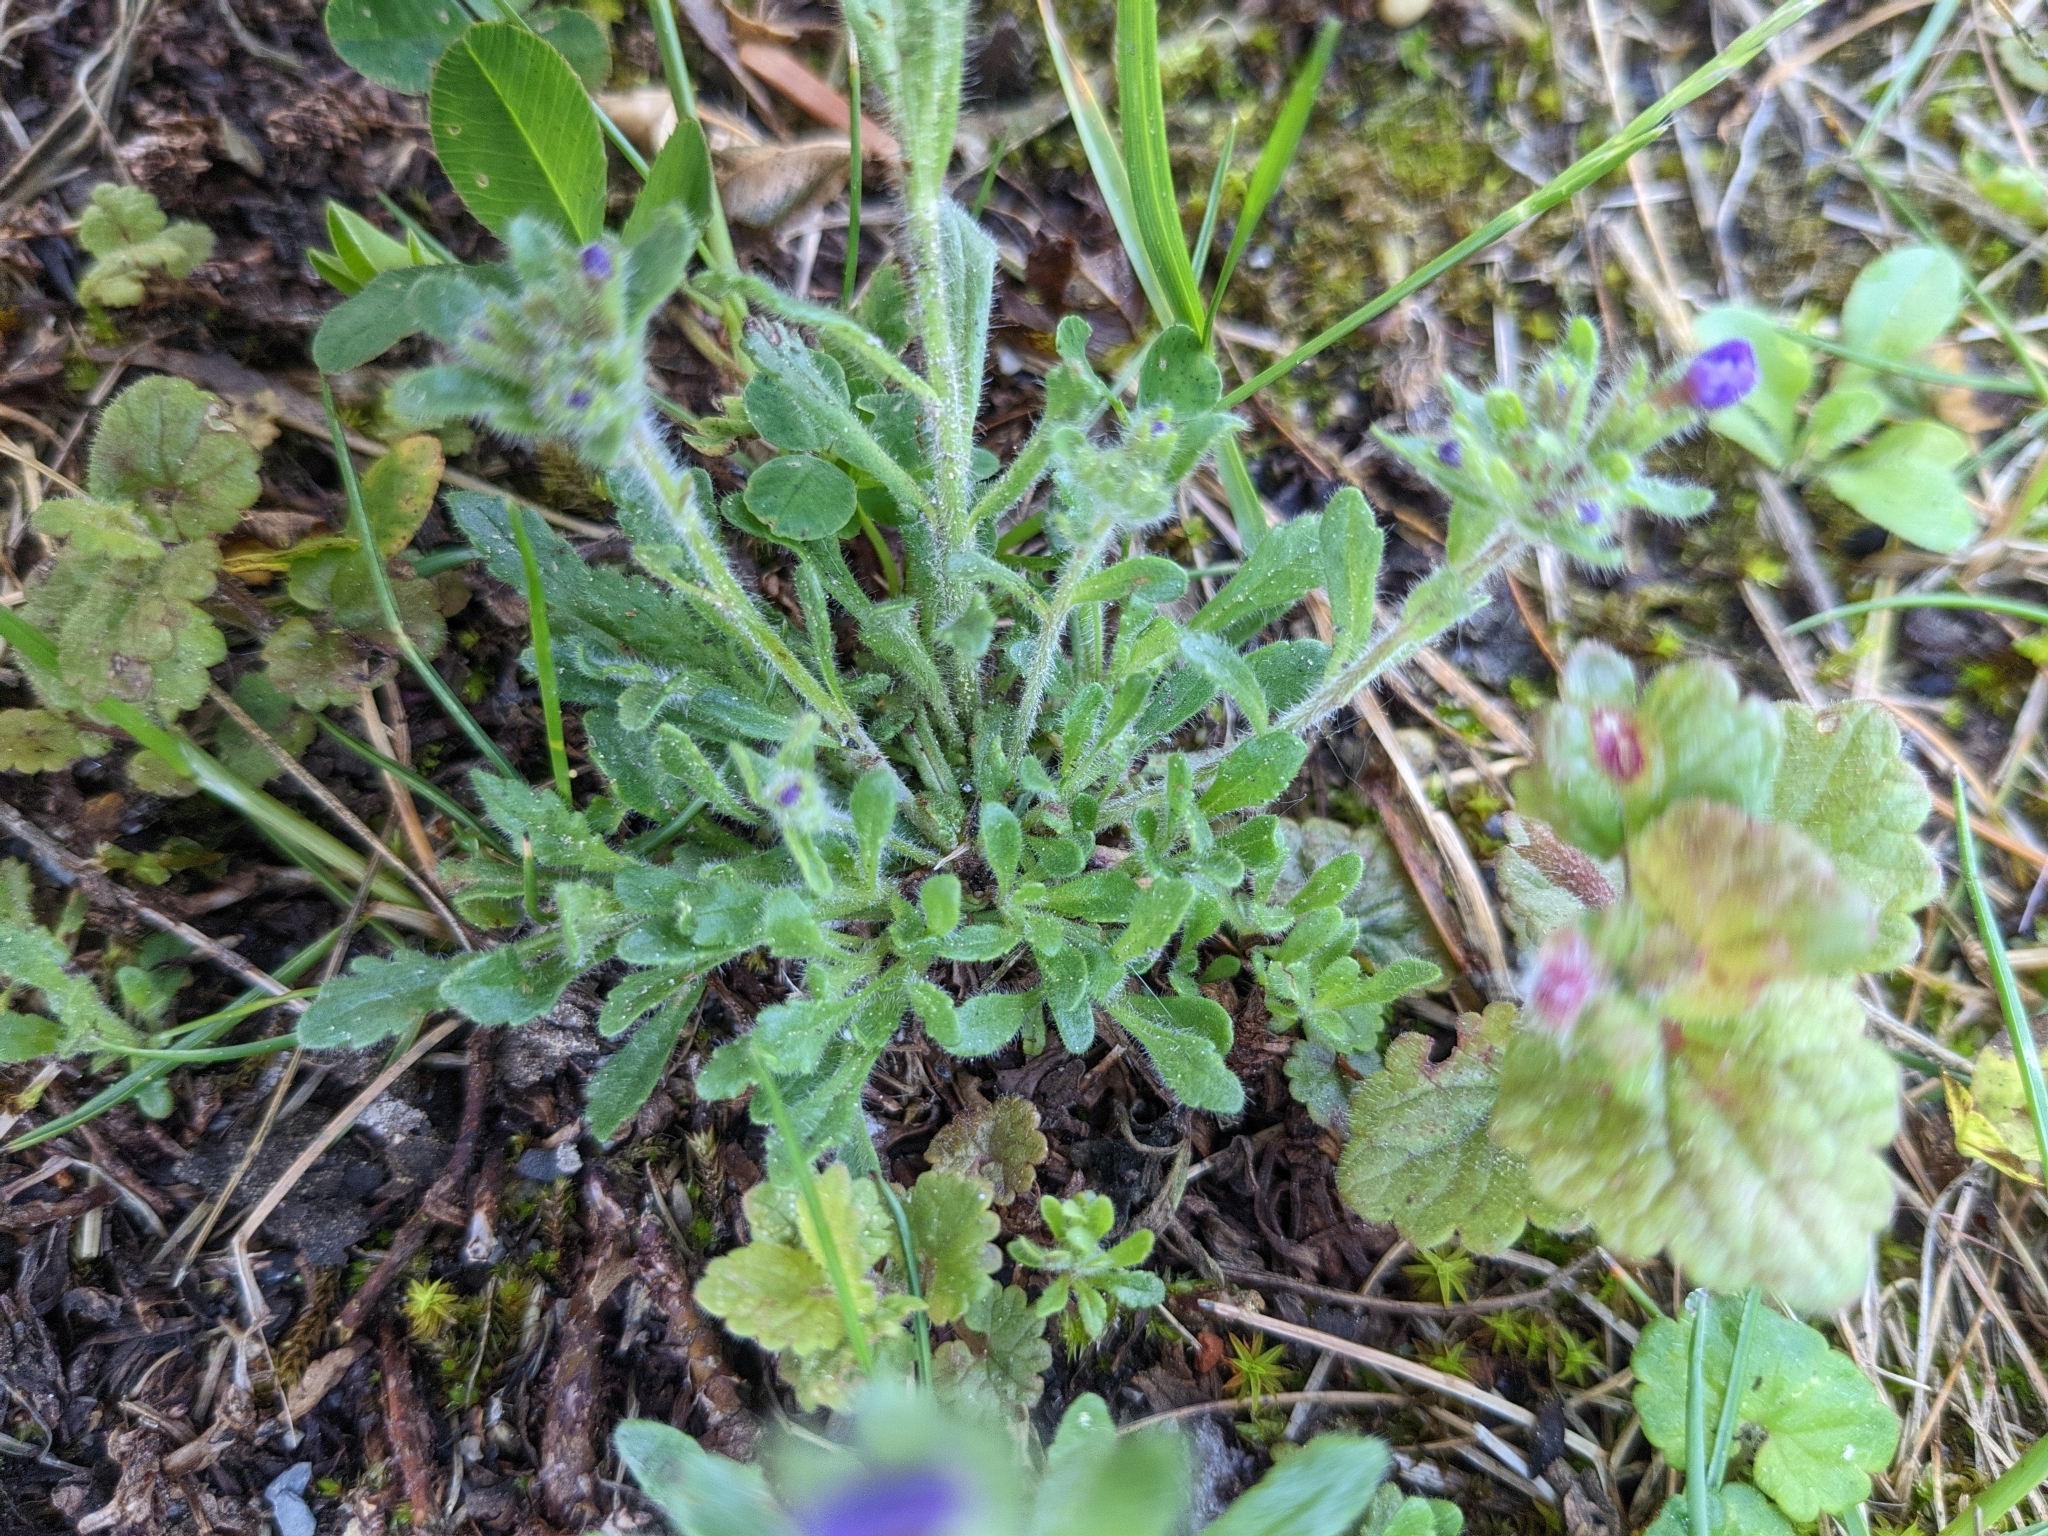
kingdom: Plantae
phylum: Tracheophyta
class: Magnoliopsida
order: Lamiales
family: Plantaginaceae
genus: Erinus
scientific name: Erinus alpinus
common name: Fairy foxglove
